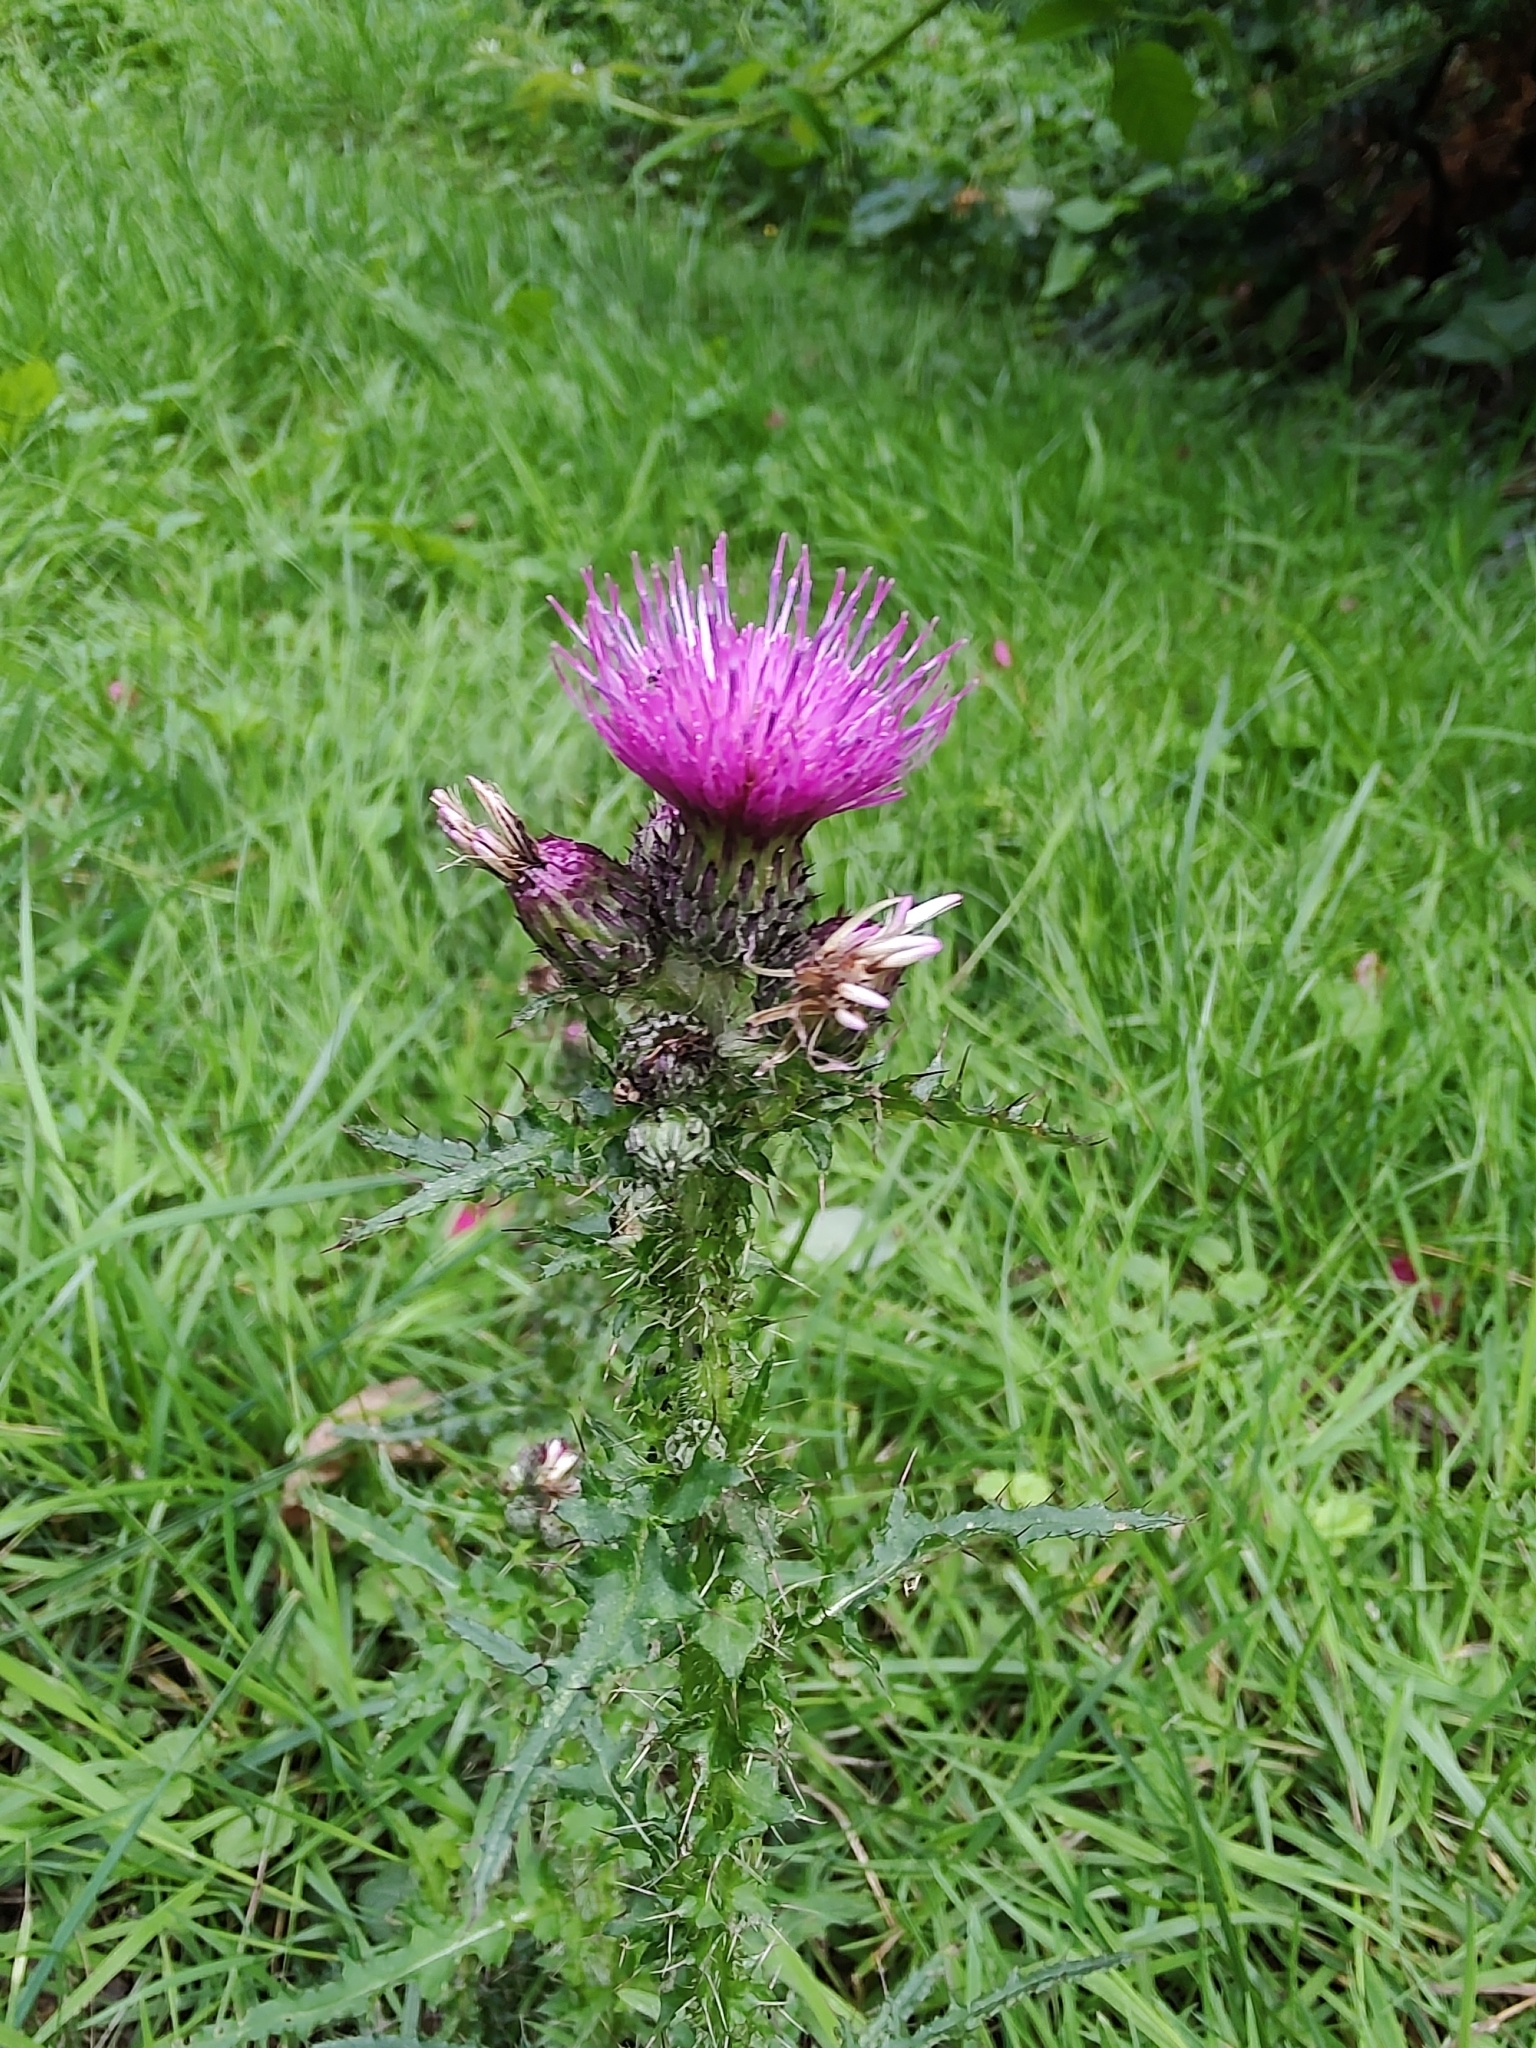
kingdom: Plantae
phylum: Tracheophyta
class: Magnoliopsida
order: Asterales
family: Asteraceae
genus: Cirsium
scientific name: Cirsium palustre
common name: Marsh thistle
